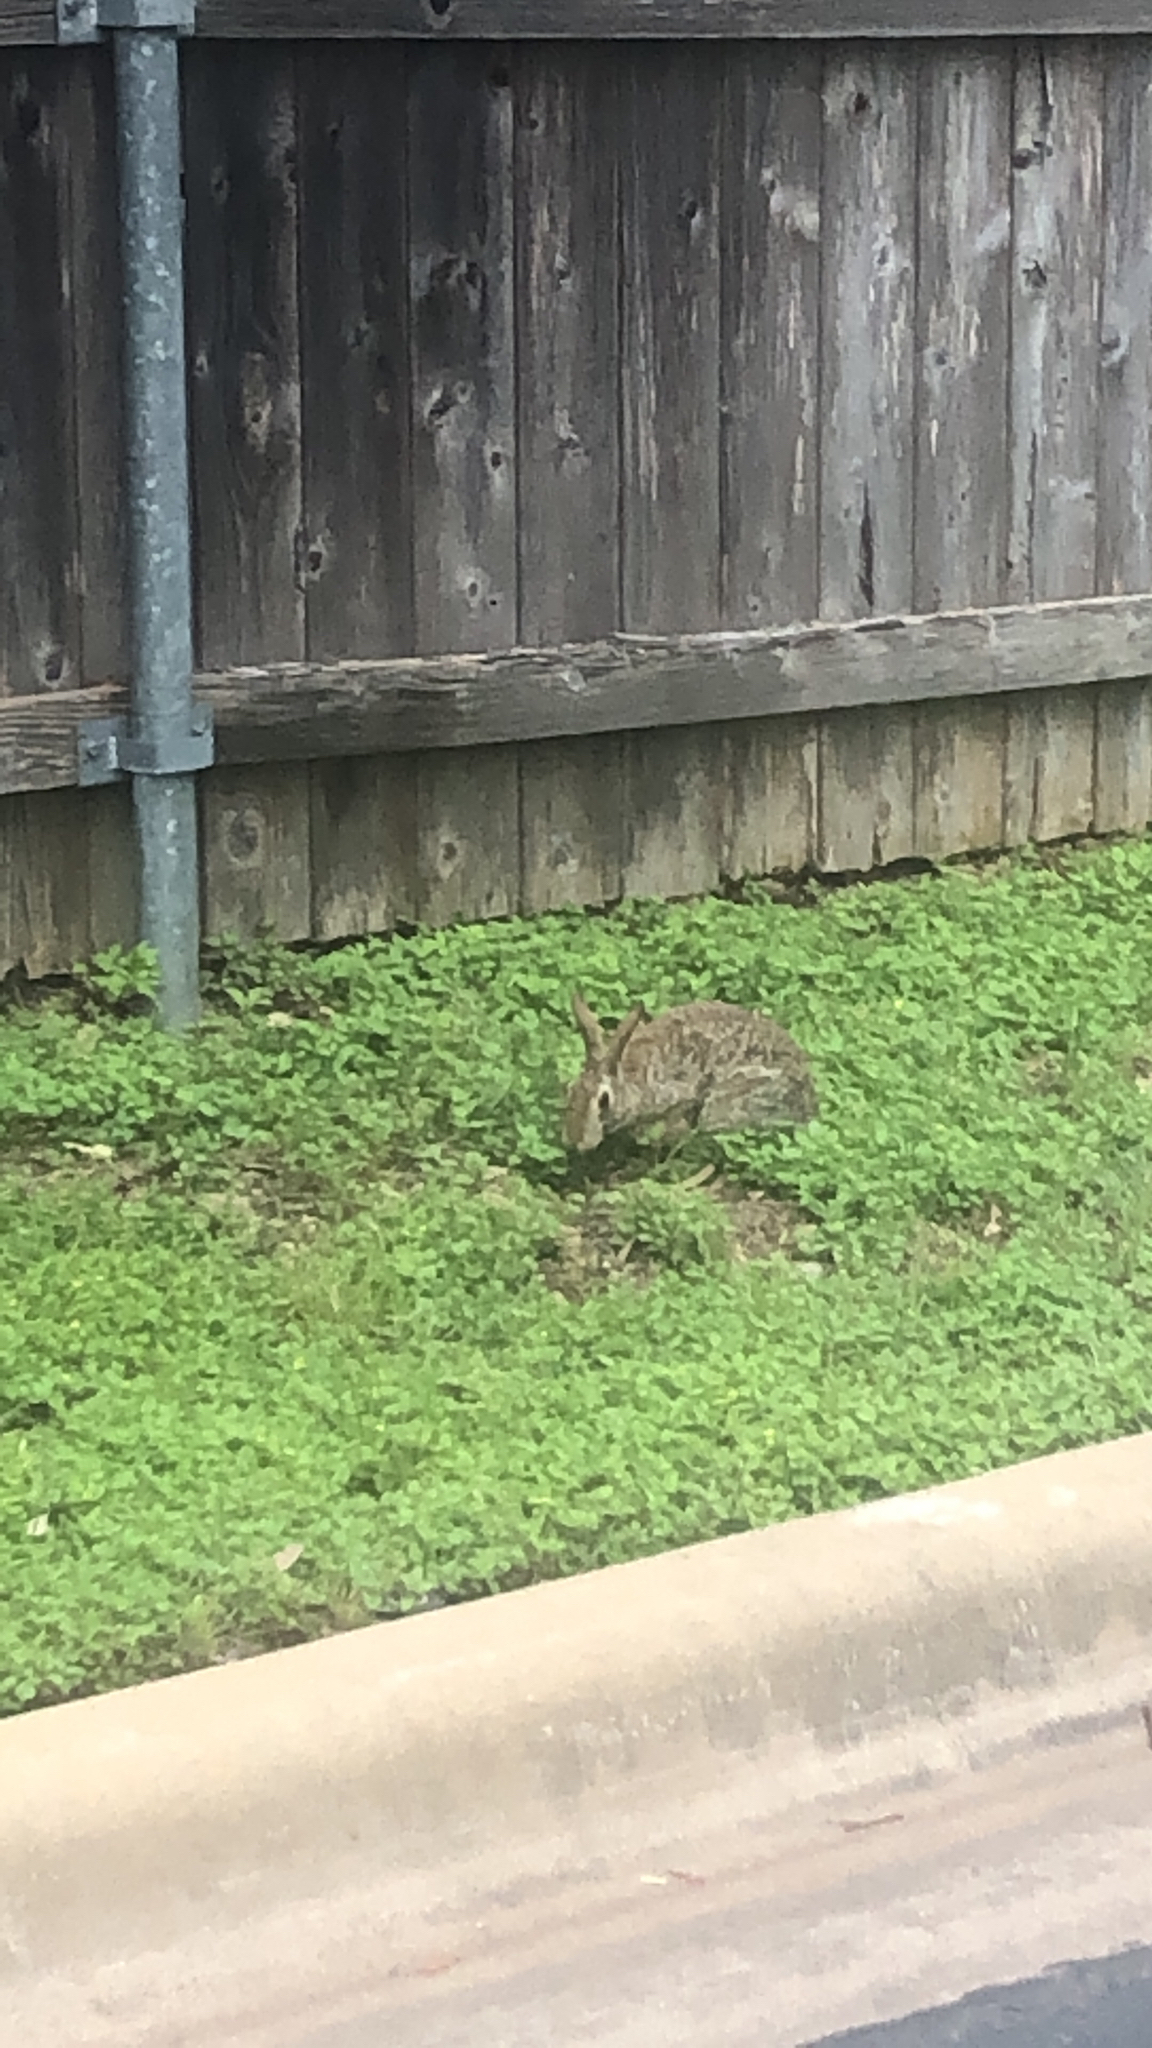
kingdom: Animalia
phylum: Chordata
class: Mammalia
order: Lagomorpha
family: Leporidae
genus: Sylvilagus
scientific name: Sylvilagus floridanus
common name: Eastern cottontail
